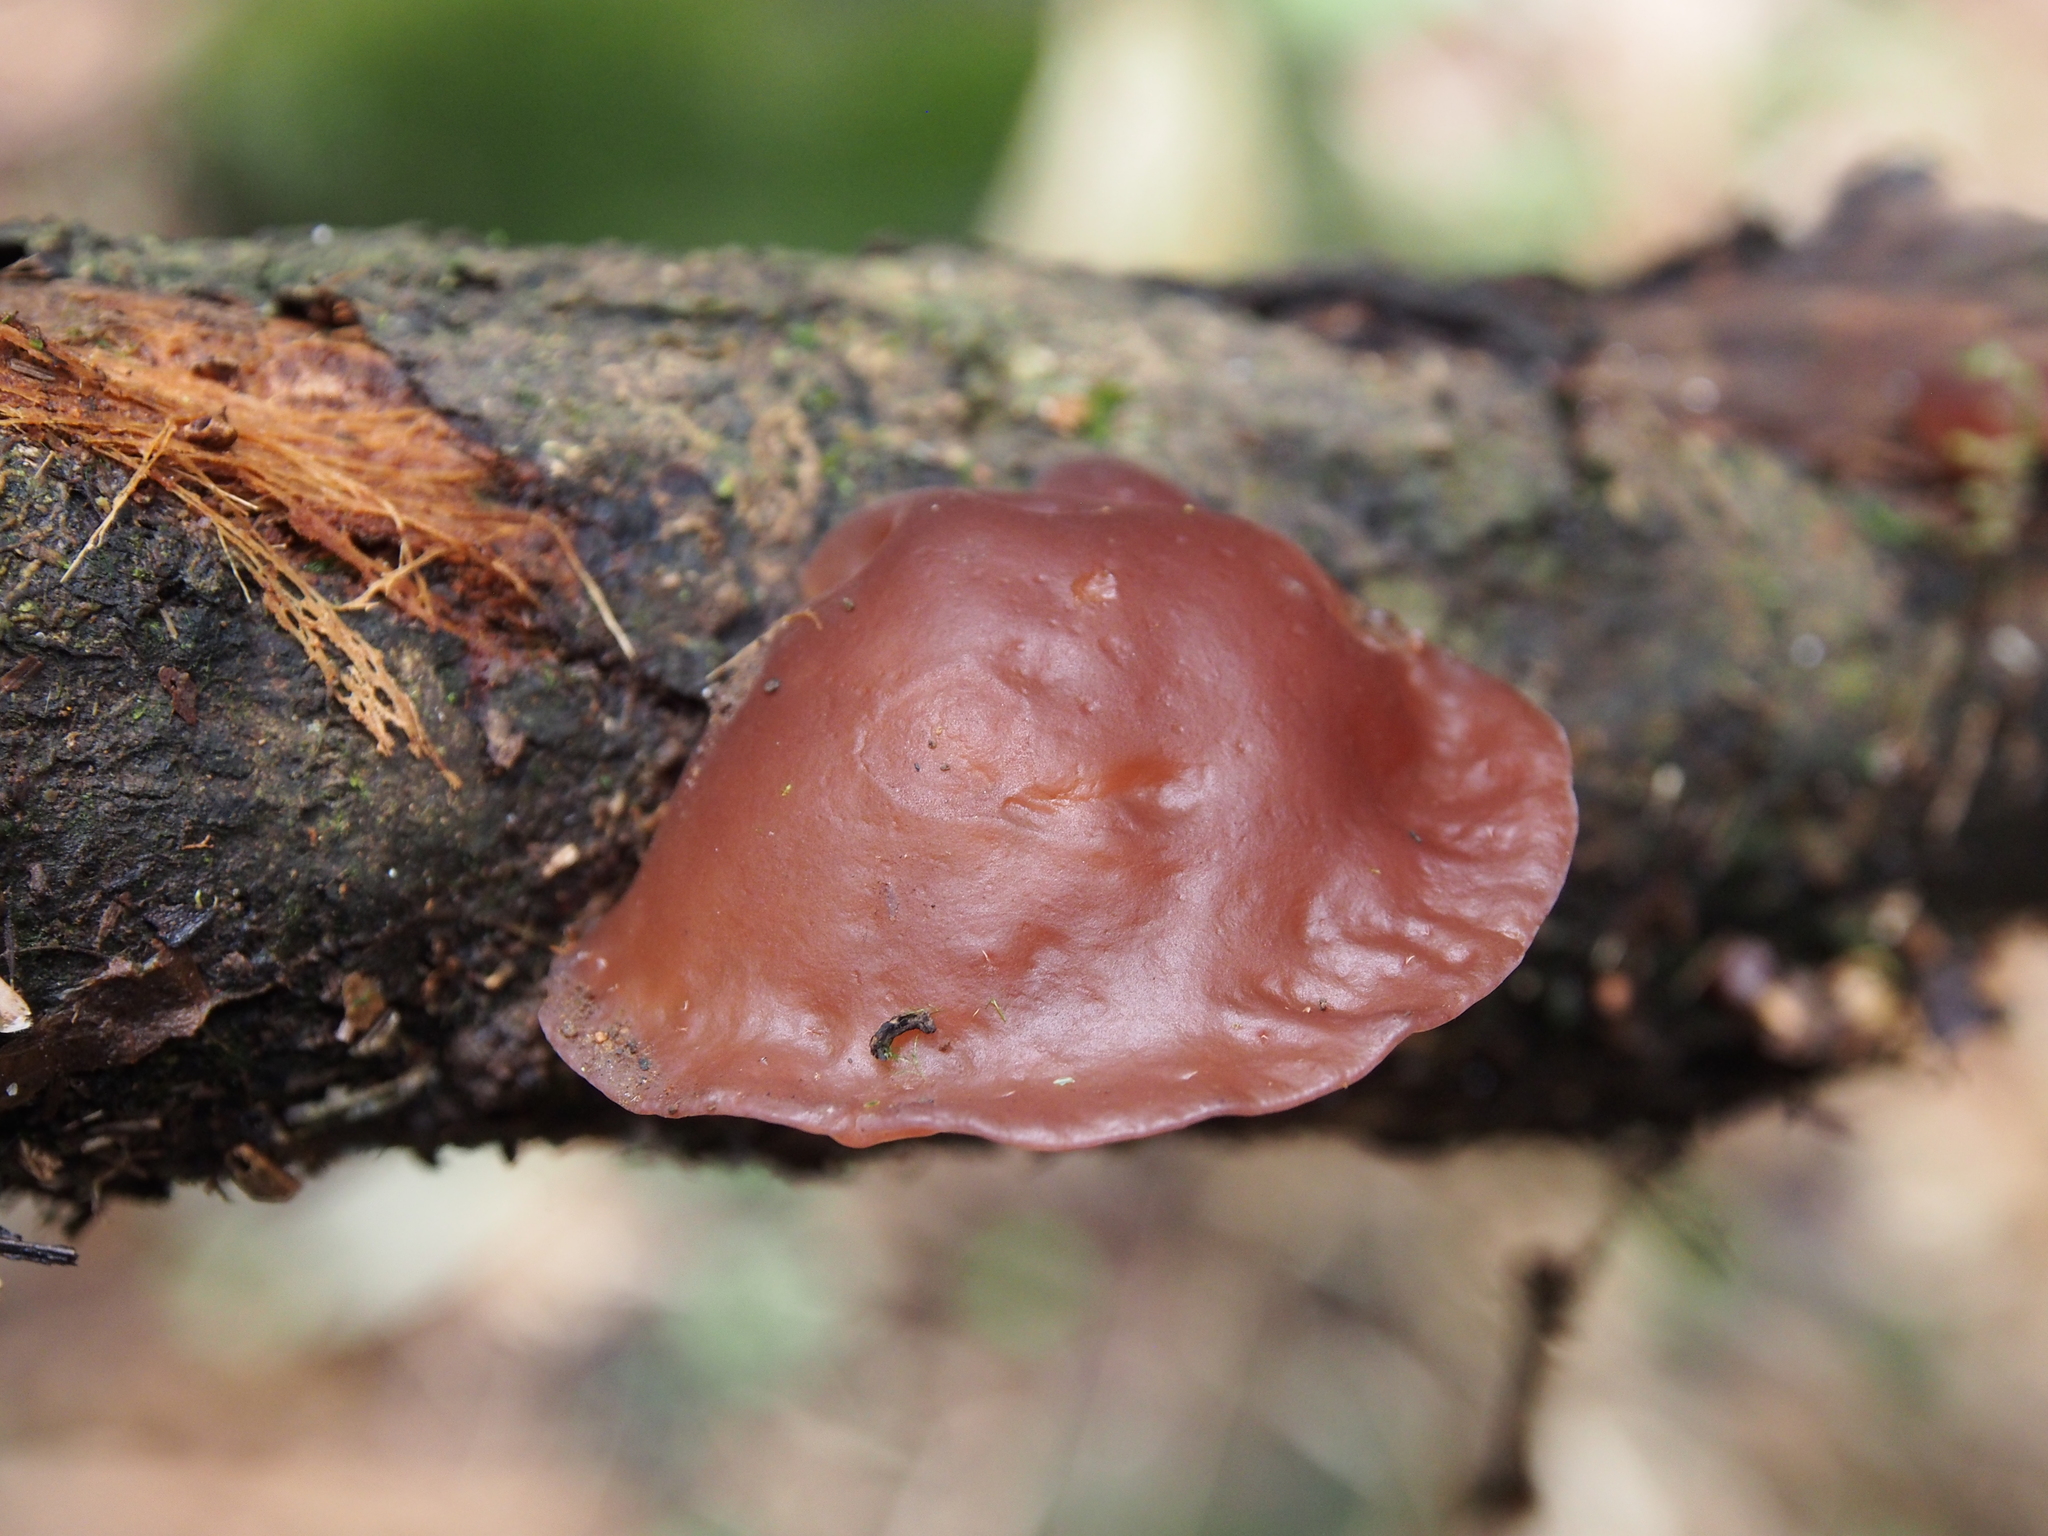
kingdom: Fungi
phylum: Basidiomycota
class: Agaricomycetes
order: Auriculariales
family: Auriculariaceae
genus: Auricularia
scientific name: Auricularia fuscosuccinea
